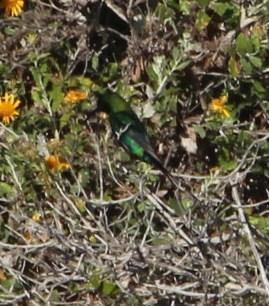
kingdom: Animalia
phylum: Chordata
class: Aves
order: Passeriformes
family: Nectariniidae
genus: Nectarinia
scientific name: Nectarinia famosa
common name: Malachite sunbird
